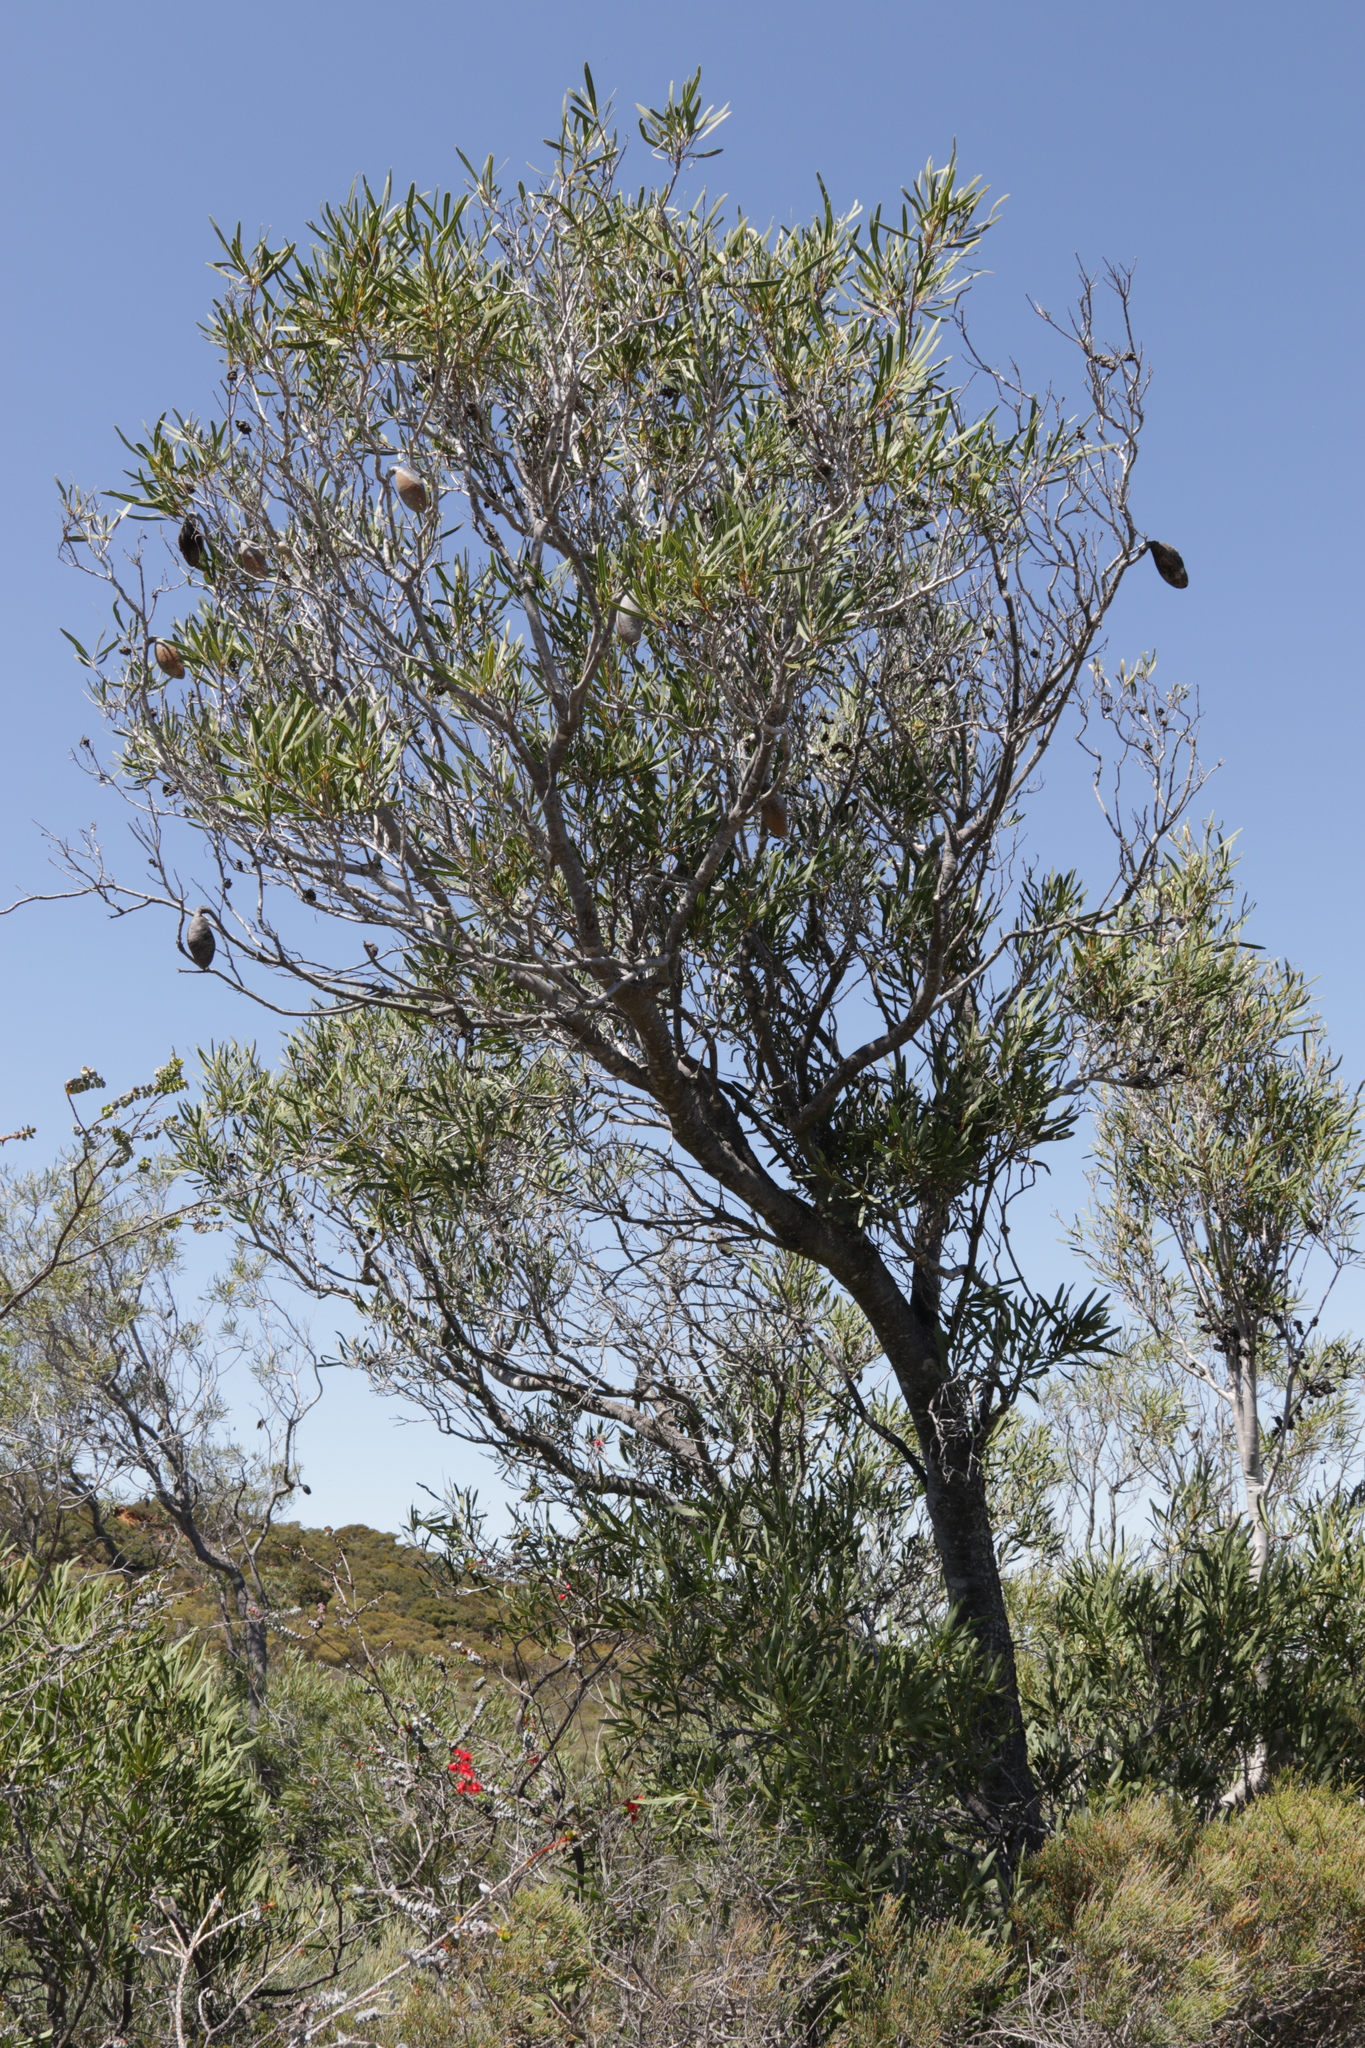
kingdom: Plantae
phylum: Tracheophyta
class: Magnoliopsida
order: Proteales
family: Proteaceae
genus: Xylomelum
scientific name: Xylomelum angustifolium
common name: Sandplain woody-pear
